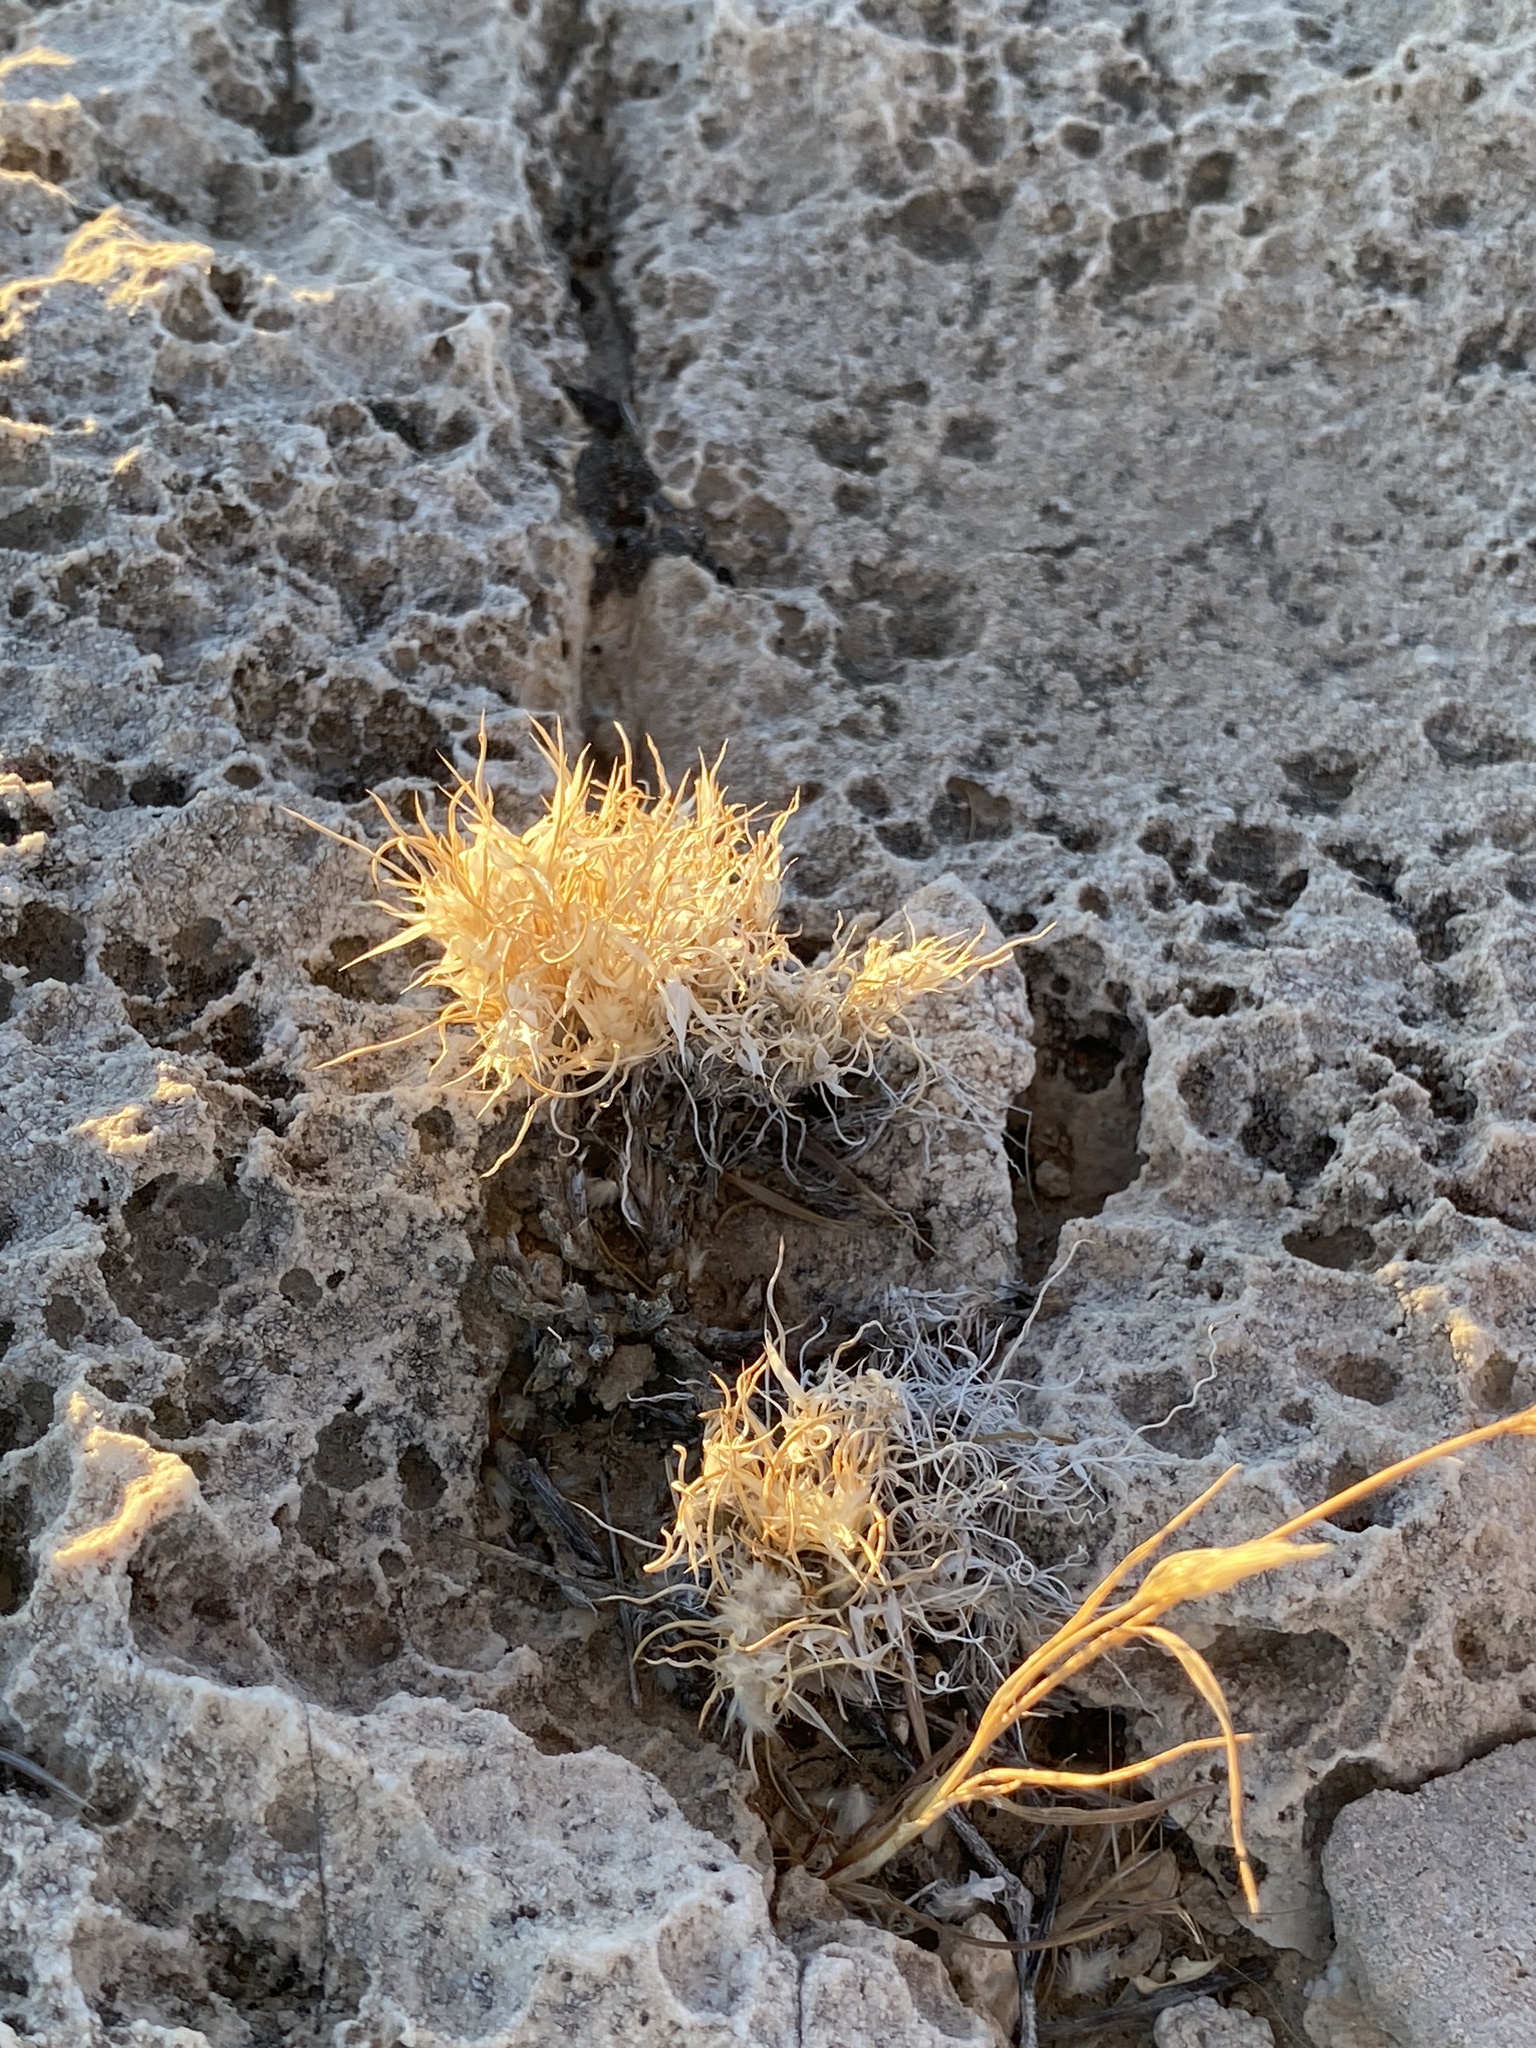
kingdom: Plantae
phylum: Tracheophyta
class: Liliopsida
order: Poales
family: Poaceae
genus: Dasyochloa
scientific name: Dasyochloa pulchella
